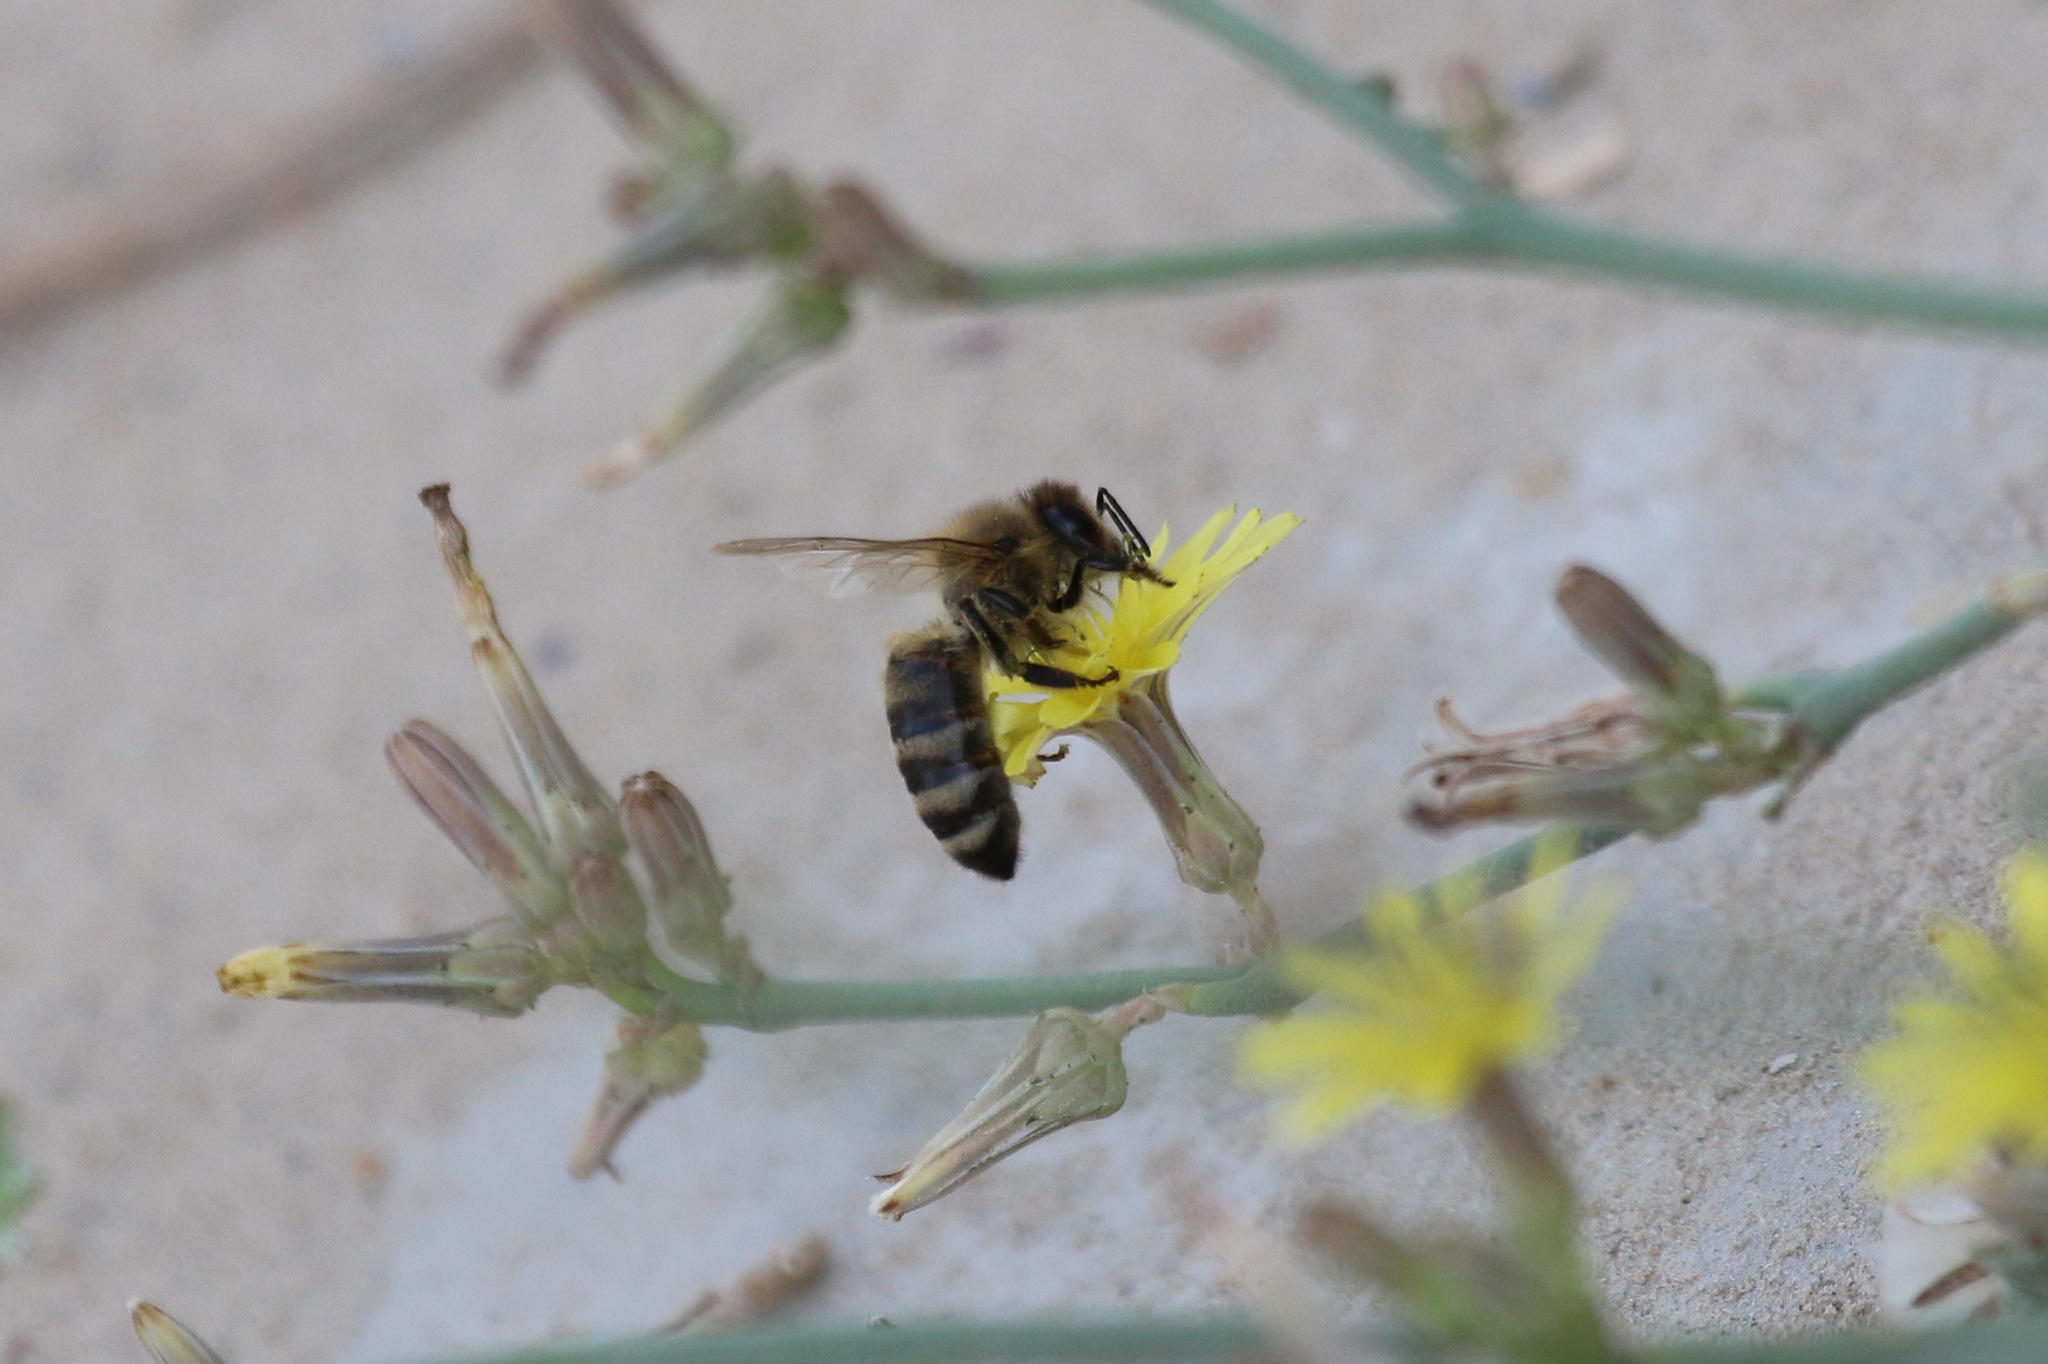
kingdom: Animalia
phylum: Arthropoda
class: Insecta
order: Hymenoptera
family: Apidae
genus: Apis
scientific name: Apis mellifera
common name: Honey bee
